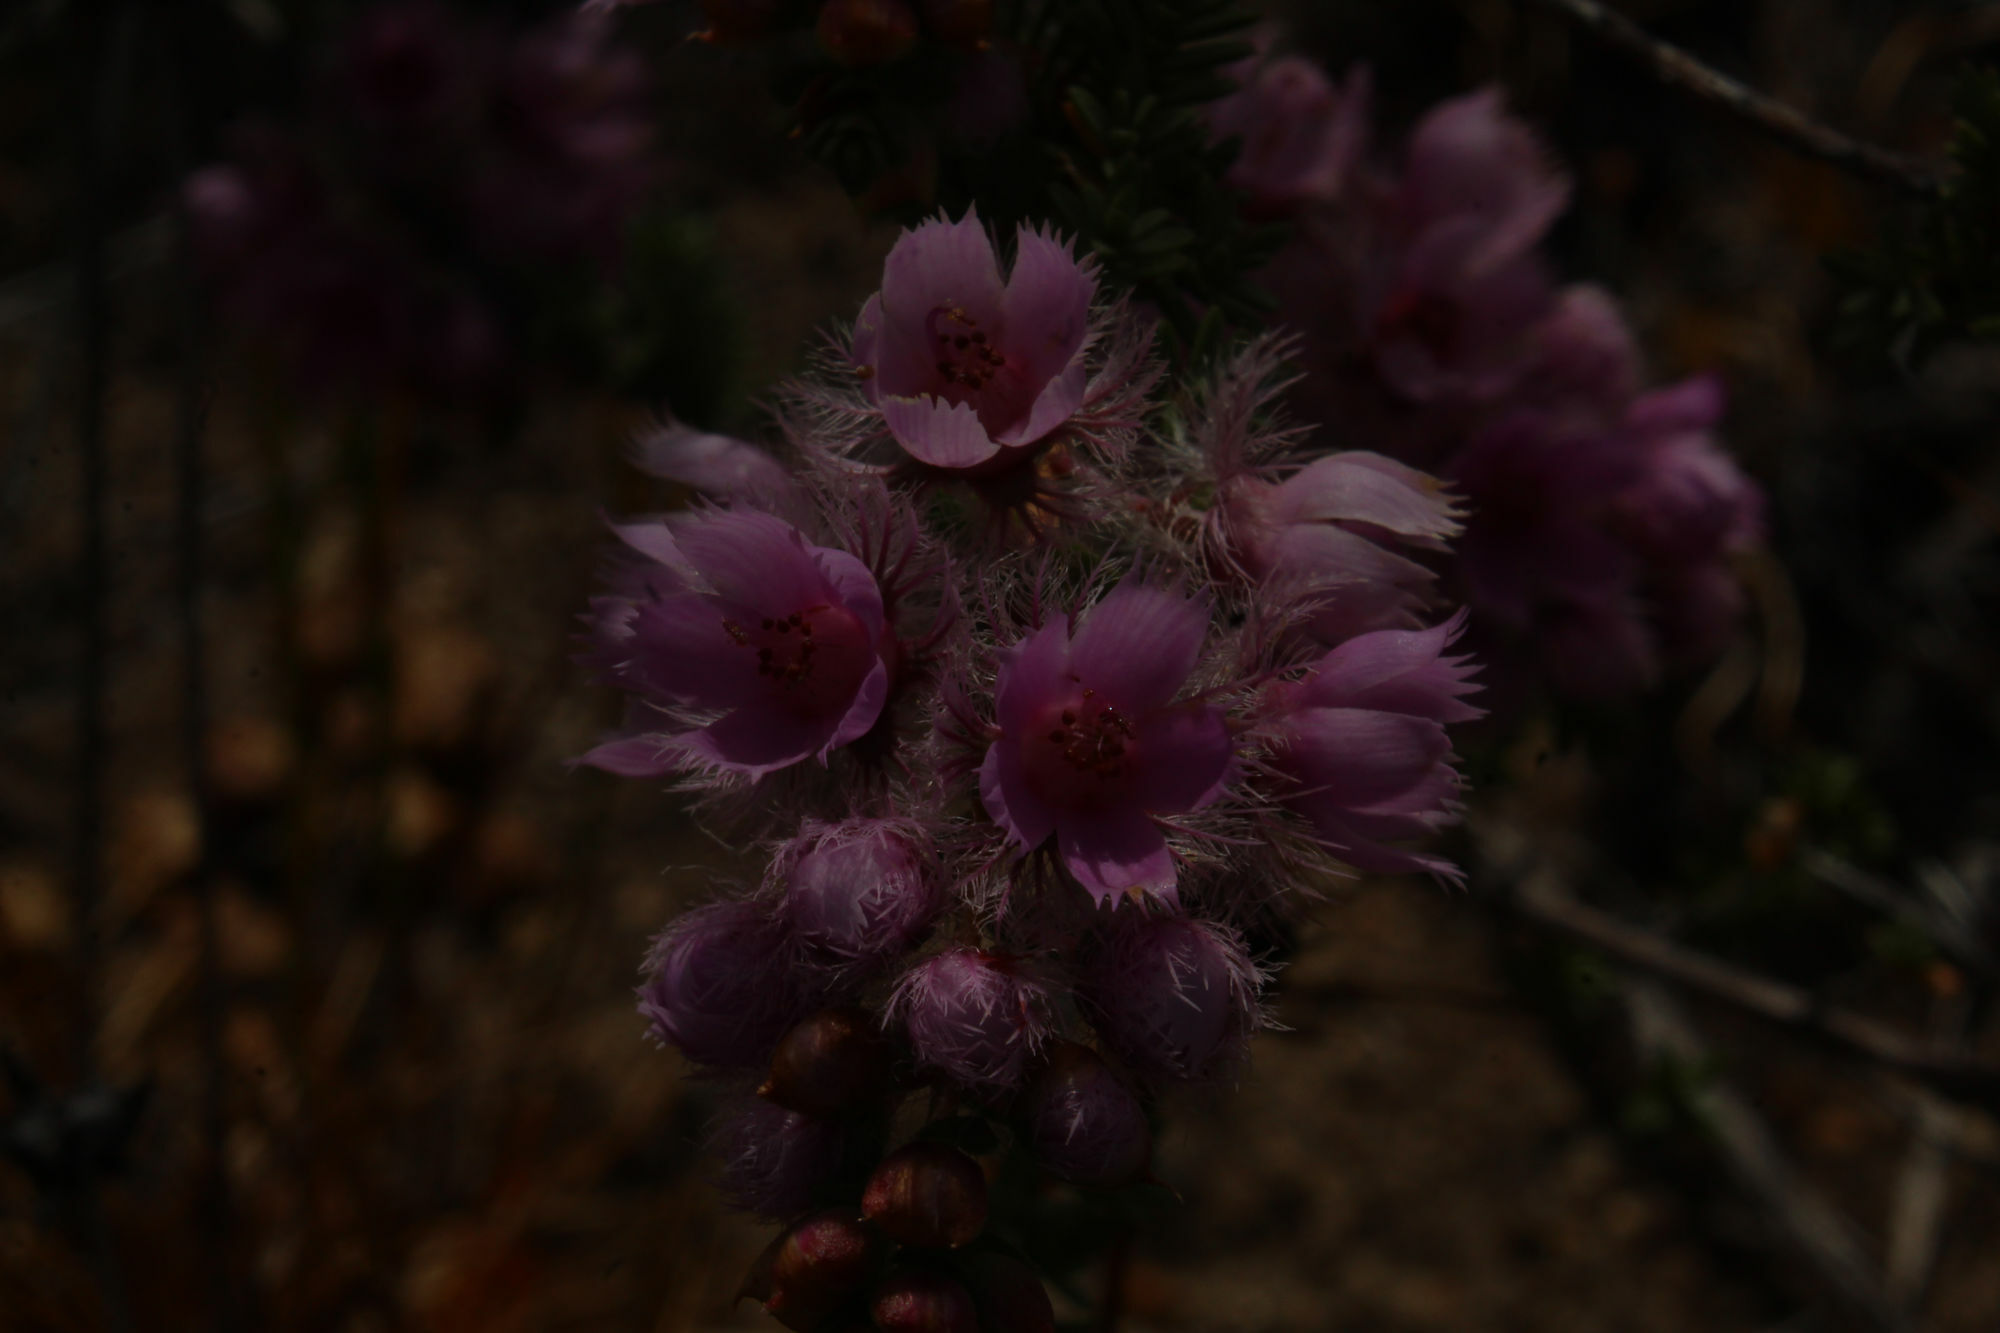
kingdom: Plantae
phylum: Tracheophyta
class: Magnoliopsida
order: Myrtales
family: Myrtaceae
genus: Verticordia
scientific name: Verticordia pennigera
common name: Native-tea
